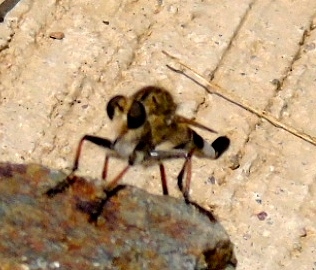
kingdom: Animalia
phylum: Arthropoda
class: Insecta
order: Diptera
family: Asilidae
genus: Efferia
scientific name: Efferia albibarbis
